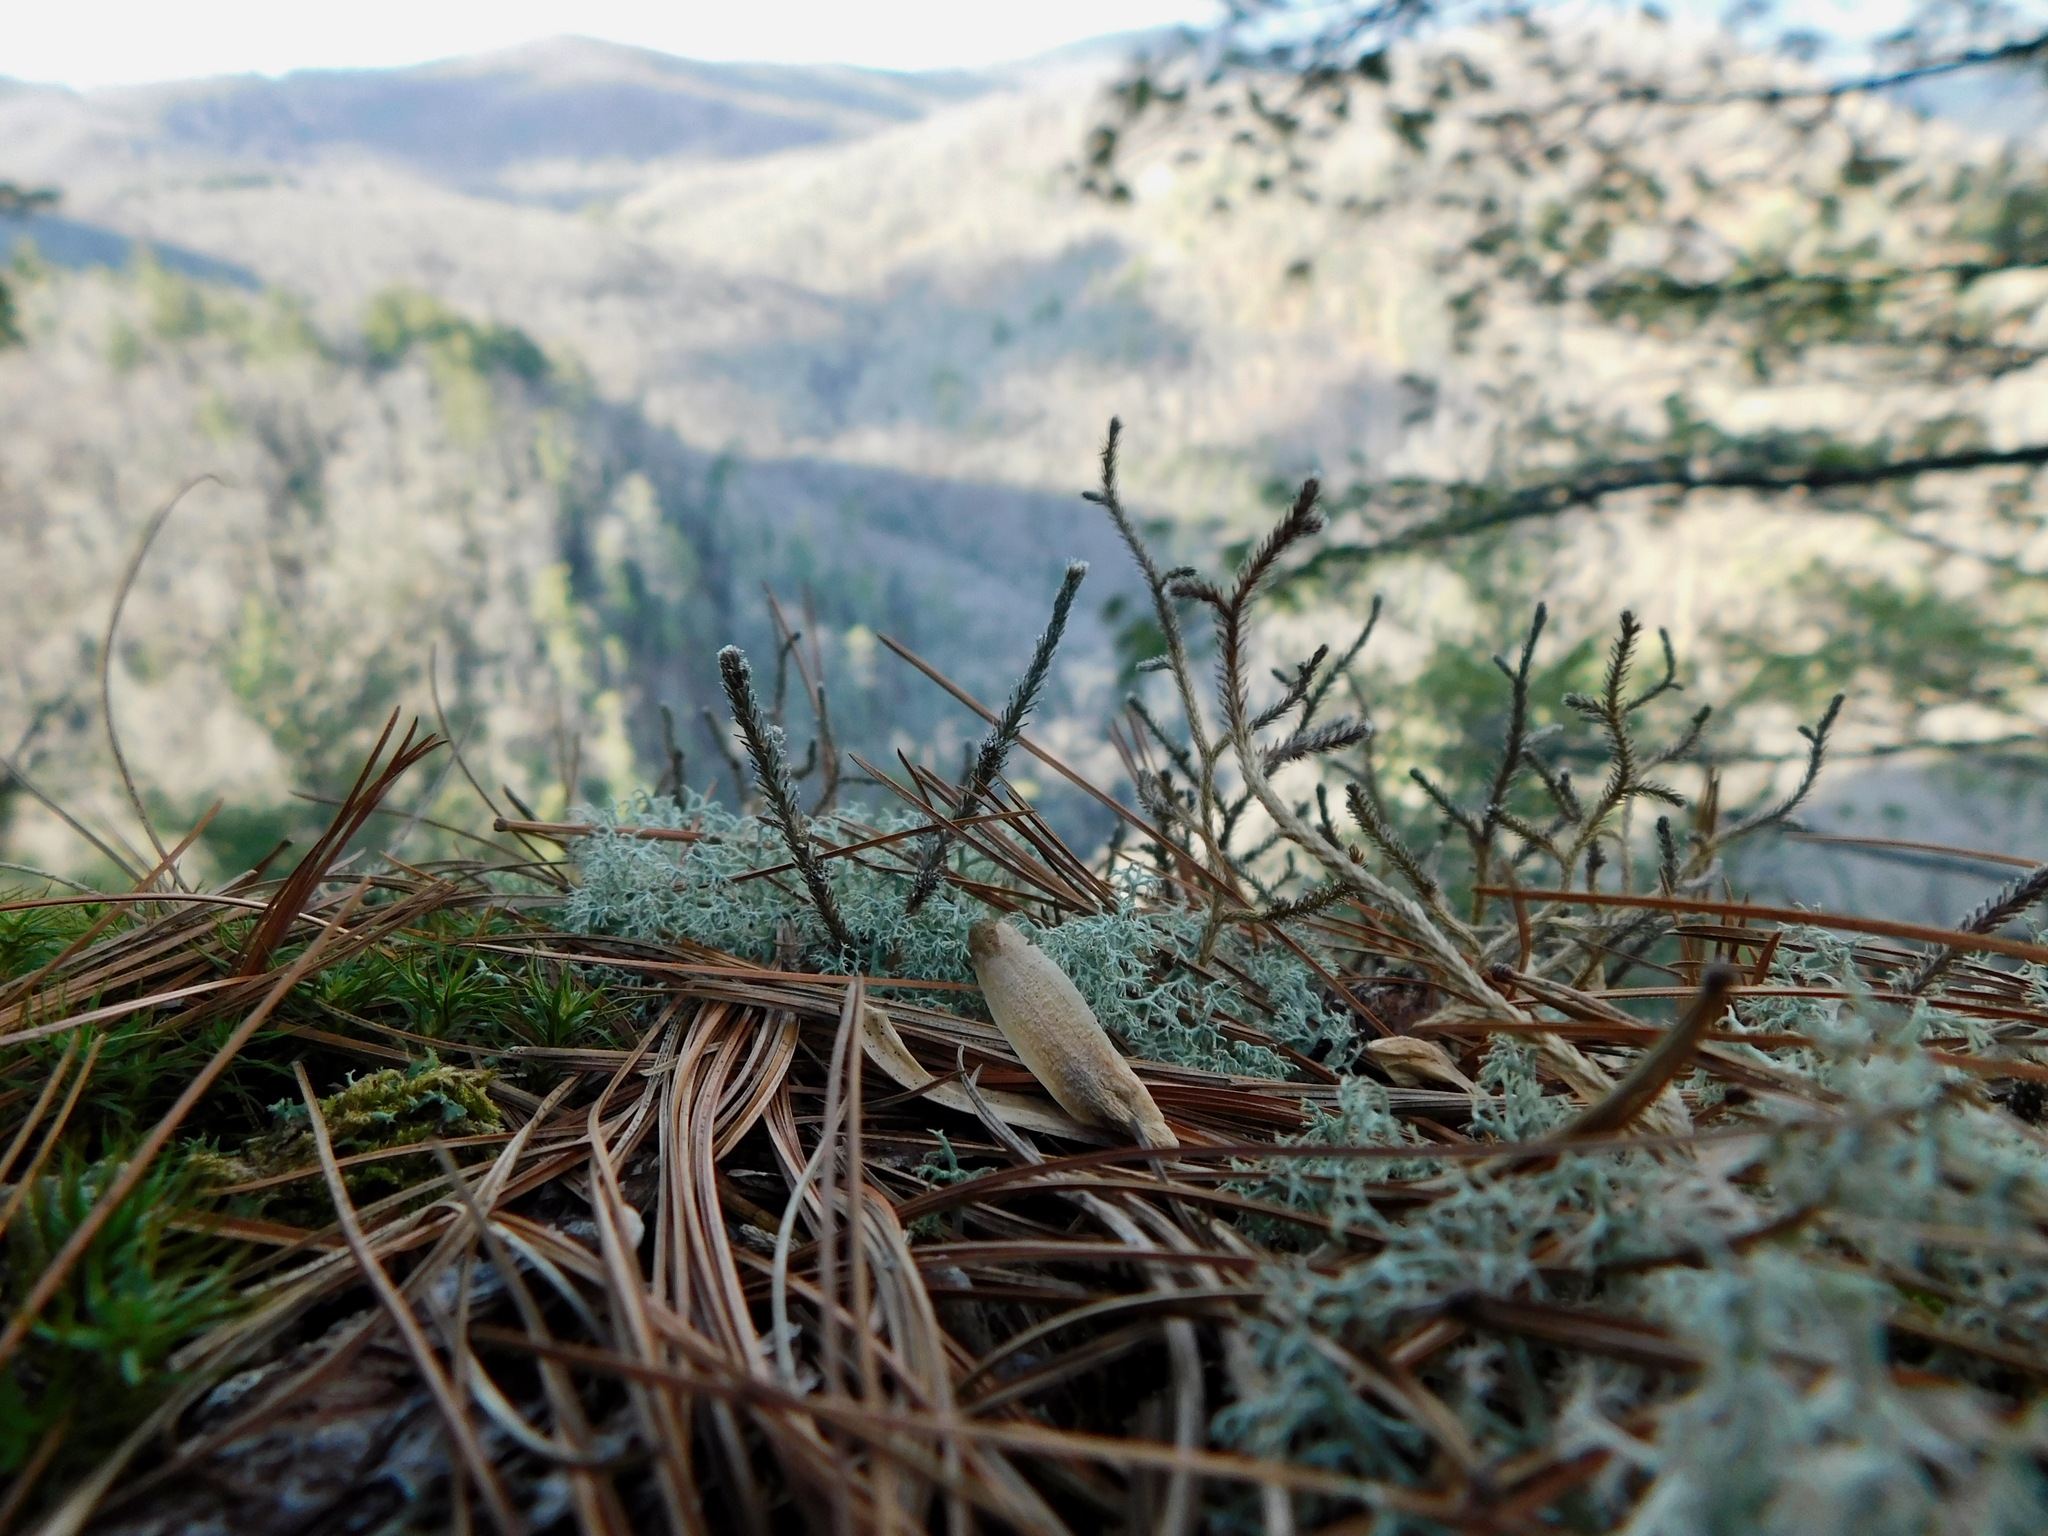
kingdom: Plantae
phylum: Tracheophyta
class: Lycopodiopsida
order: Selaginellales
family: Selaginellaceae
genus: Selaginella
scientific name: Selaginella tortipila
